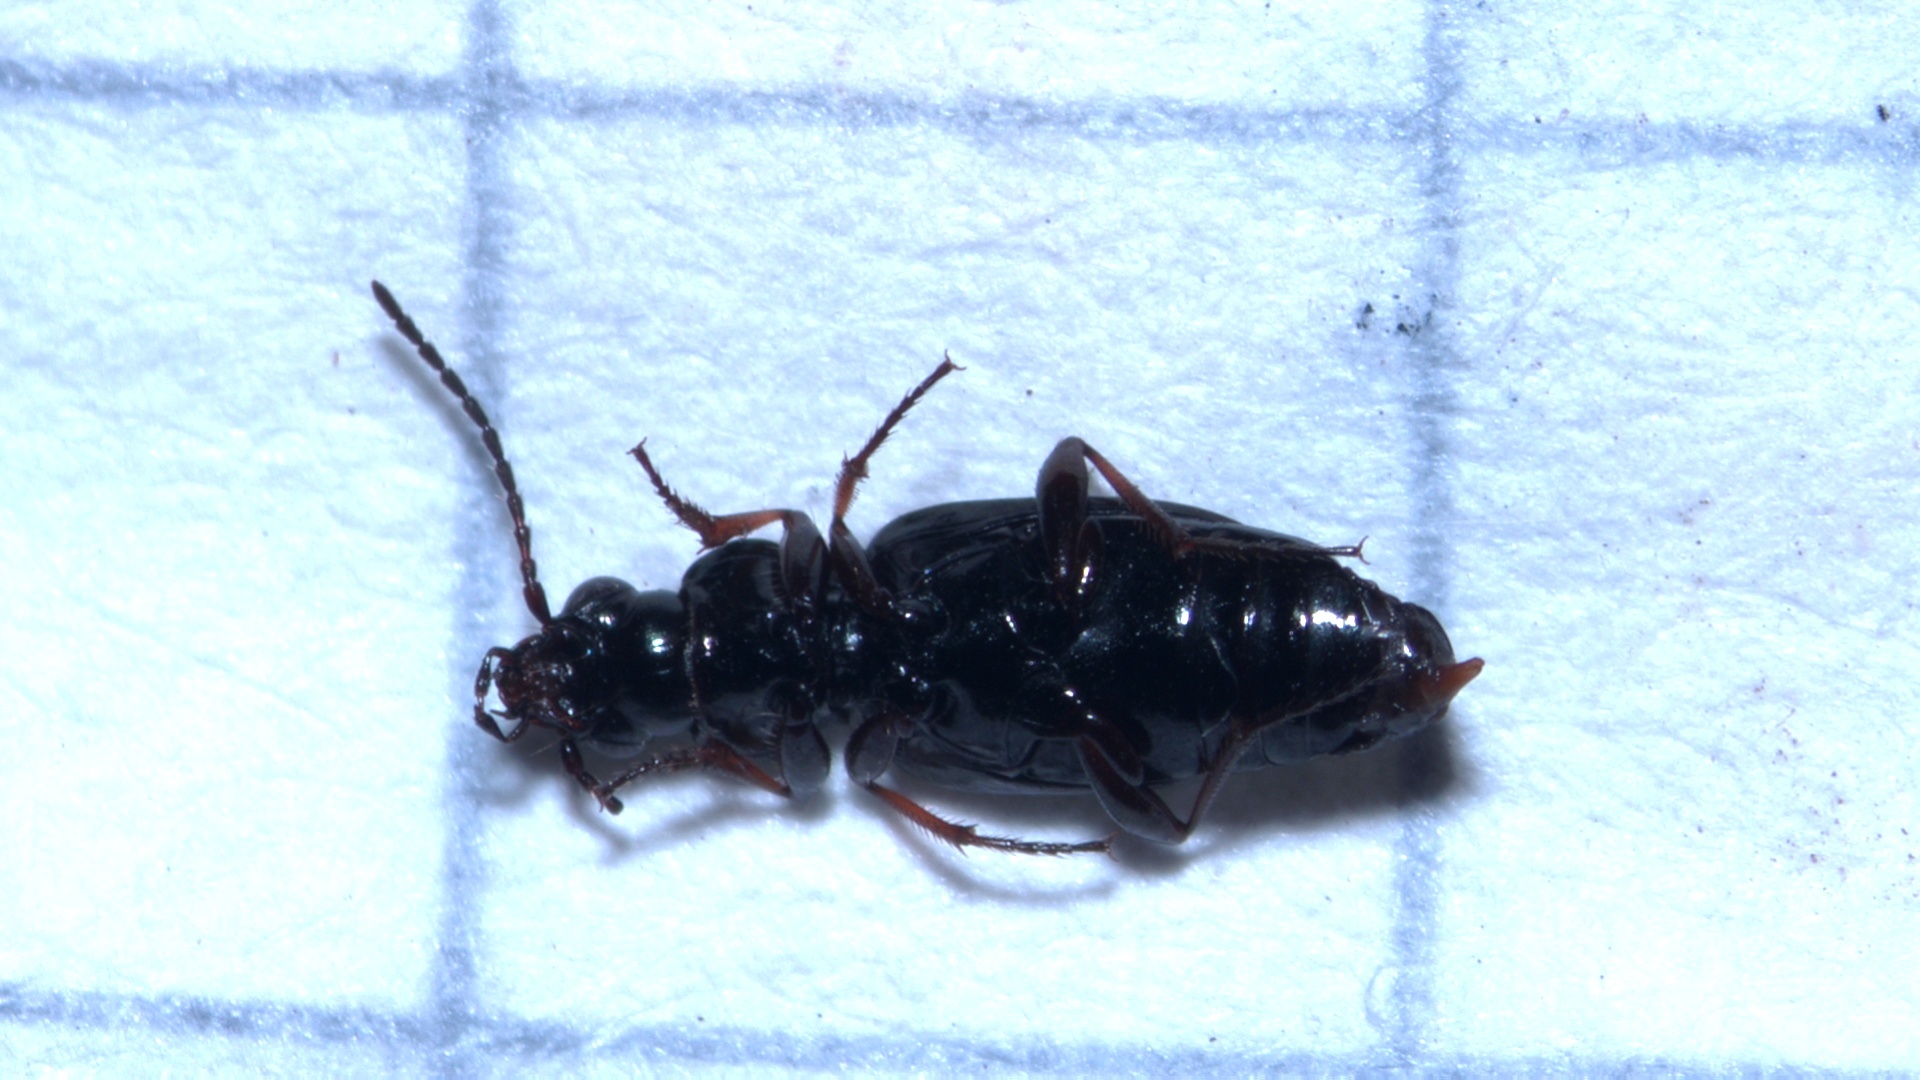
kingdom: Animalia
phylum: Arthropoda
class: Insecta
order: Coleoptera
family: Carabidae
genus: Bembidion
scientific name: Bembidion lampros
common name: Shiny riverbank ground beetle
